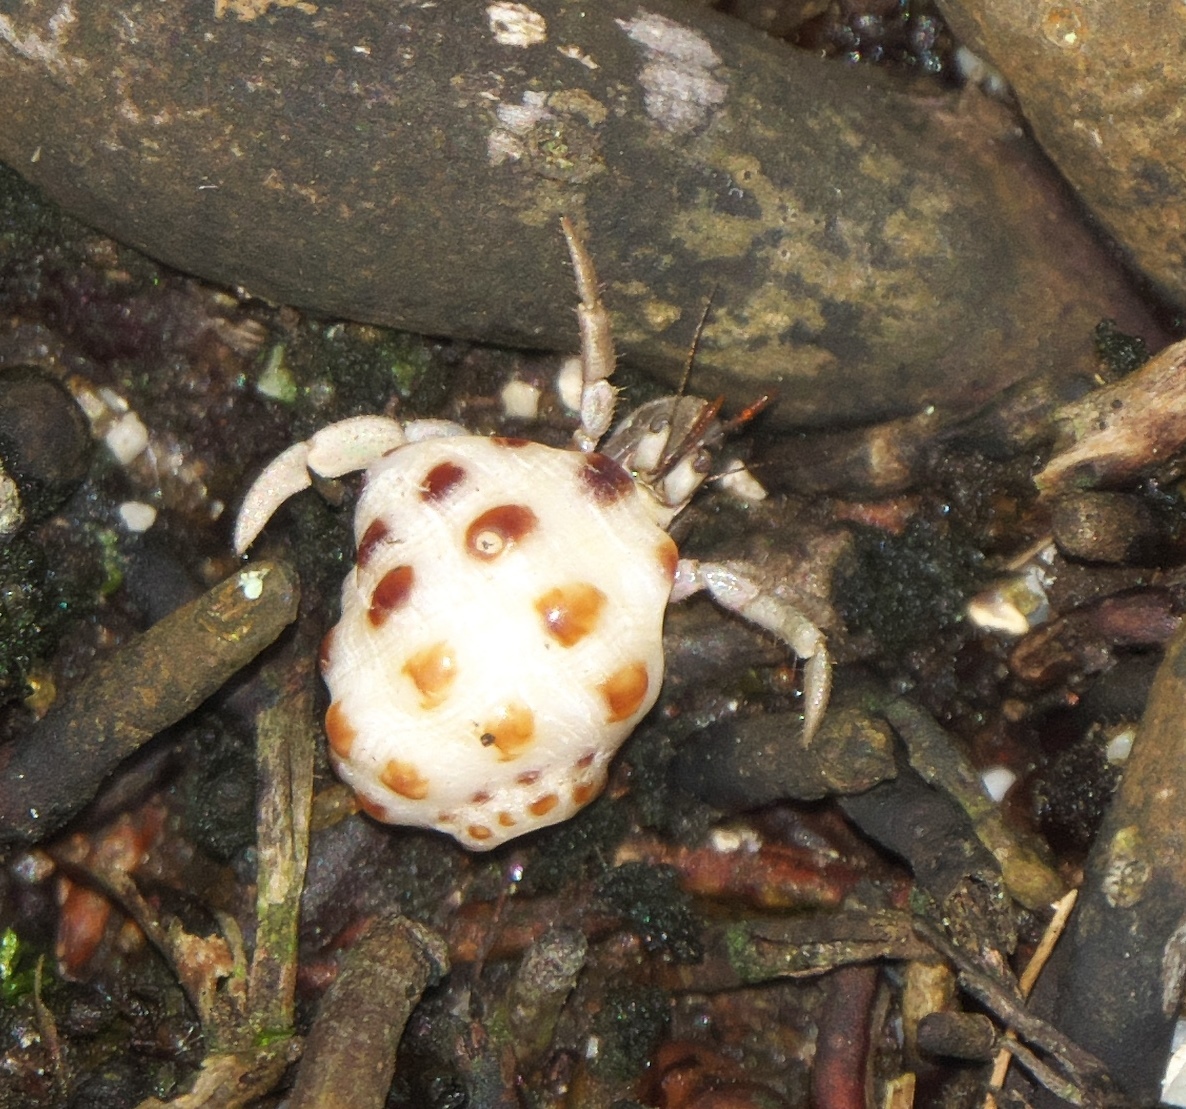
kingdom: Animalia
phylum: Arthropoda
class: Malacostraca
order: Decapoda
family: Coenobitidae
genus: Coenobita
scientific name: Coenobita rugosus
